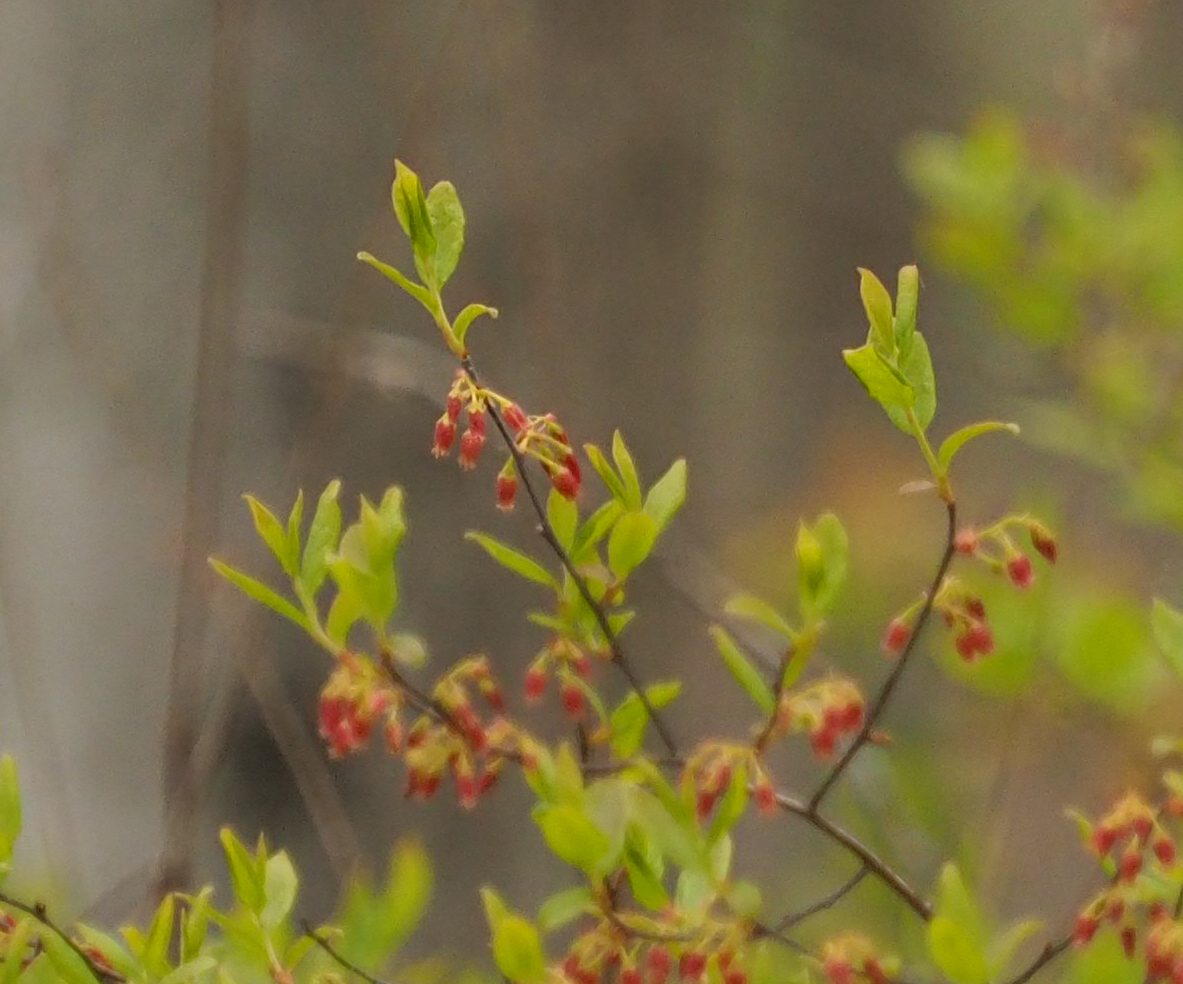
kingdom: Plantae
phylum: Tracheophyta
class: Magnoliopsida
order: Ericales
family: Ericaceae
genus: Gaylussacia
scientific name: Gaylussacia baccata
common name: Black huckleberry
